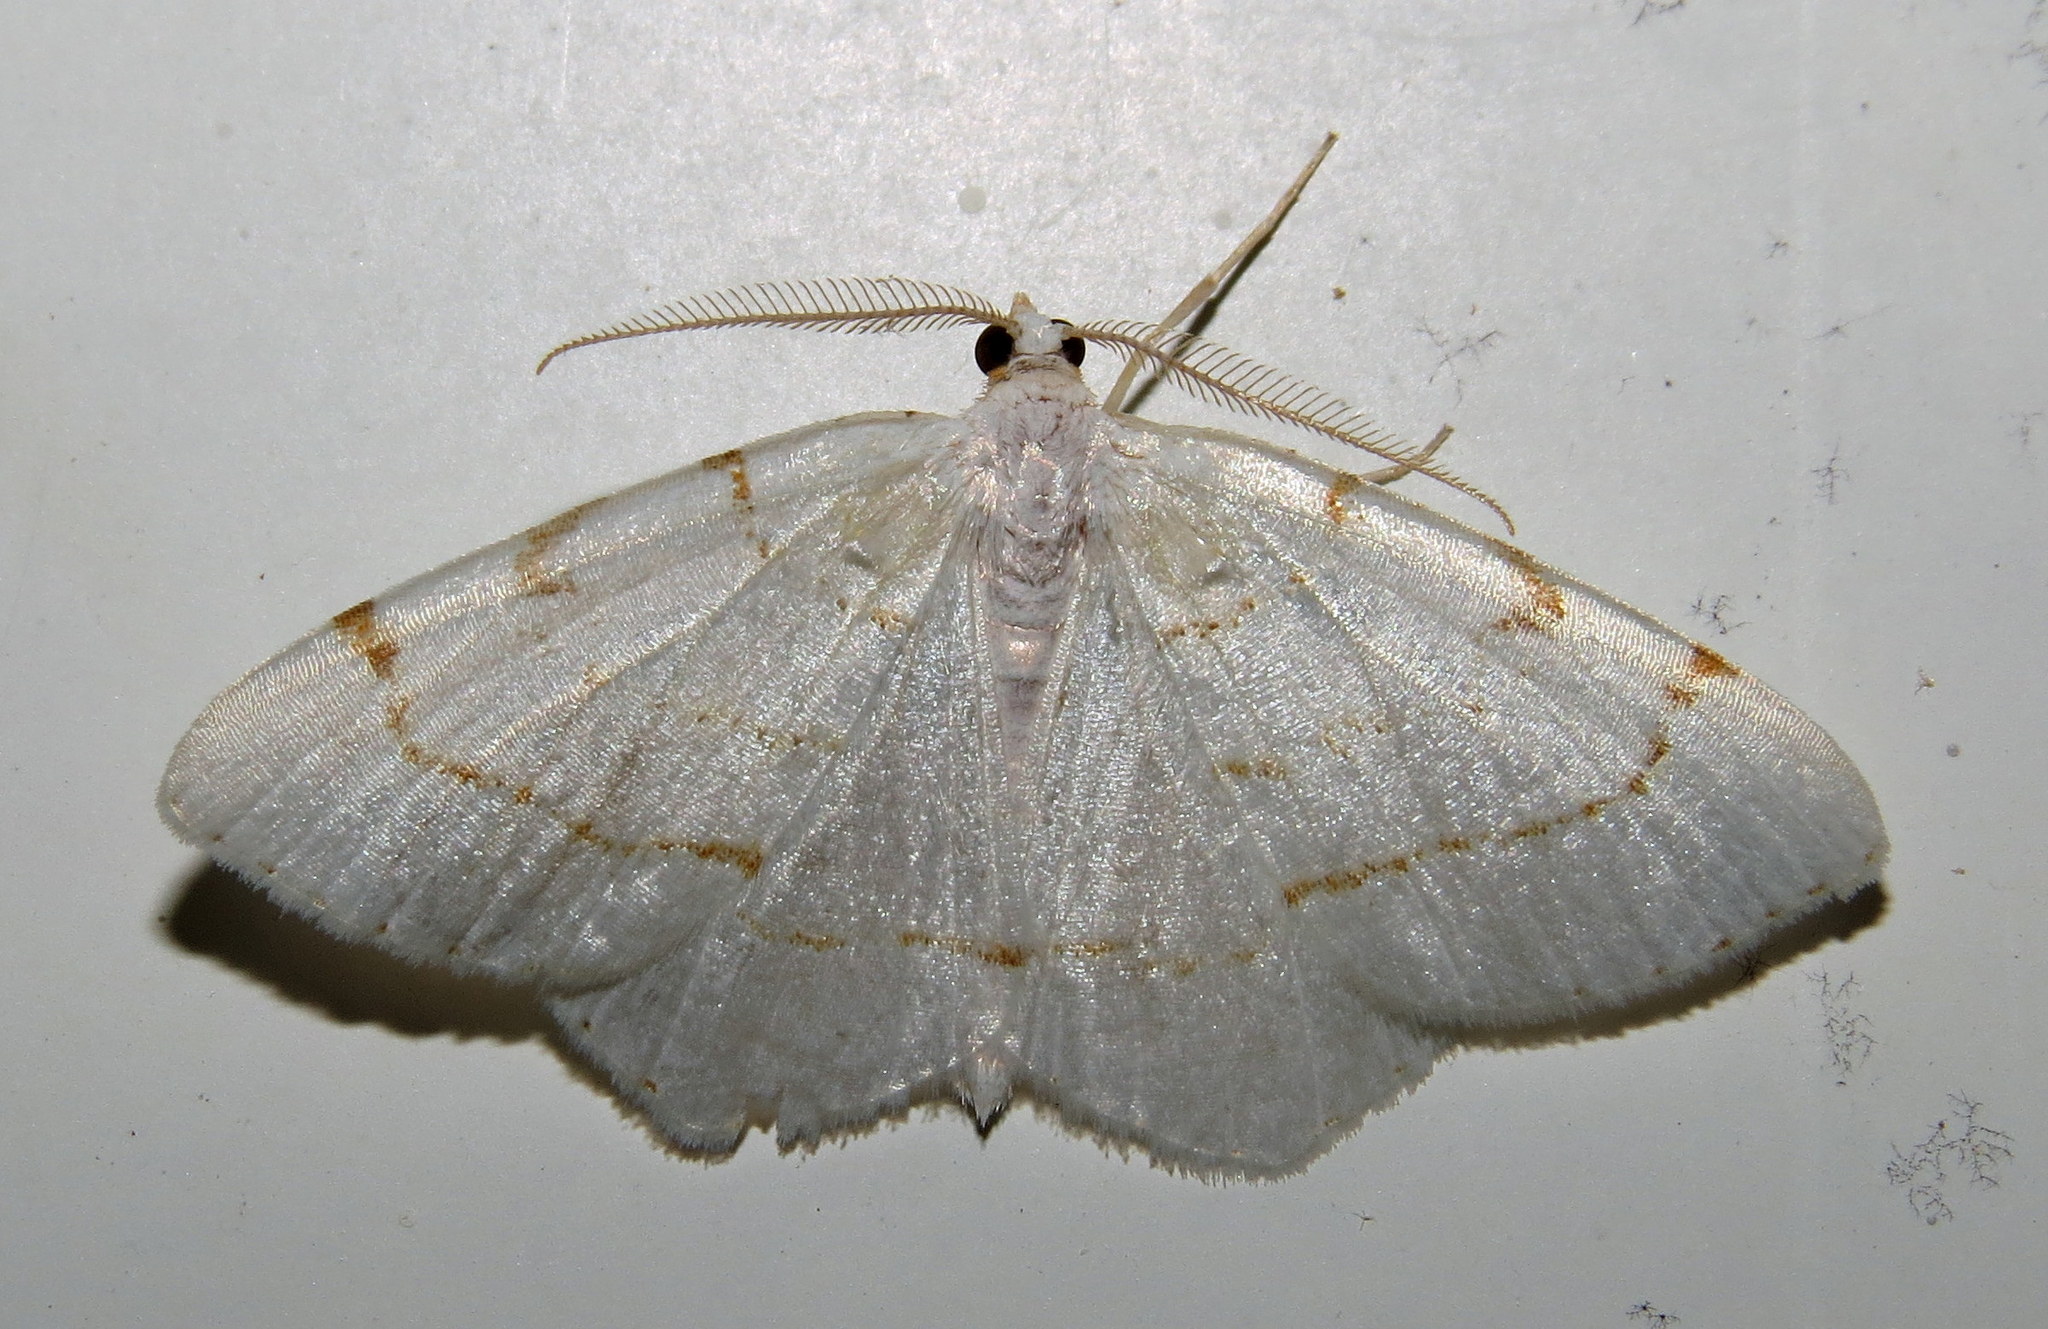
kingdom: Animalia
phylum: Arthropoda
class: Insecta
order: Lepidoptera
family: Geometridae
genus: Macaria
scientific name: Macaria pustularia
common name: Lesser maple spanworm moth
